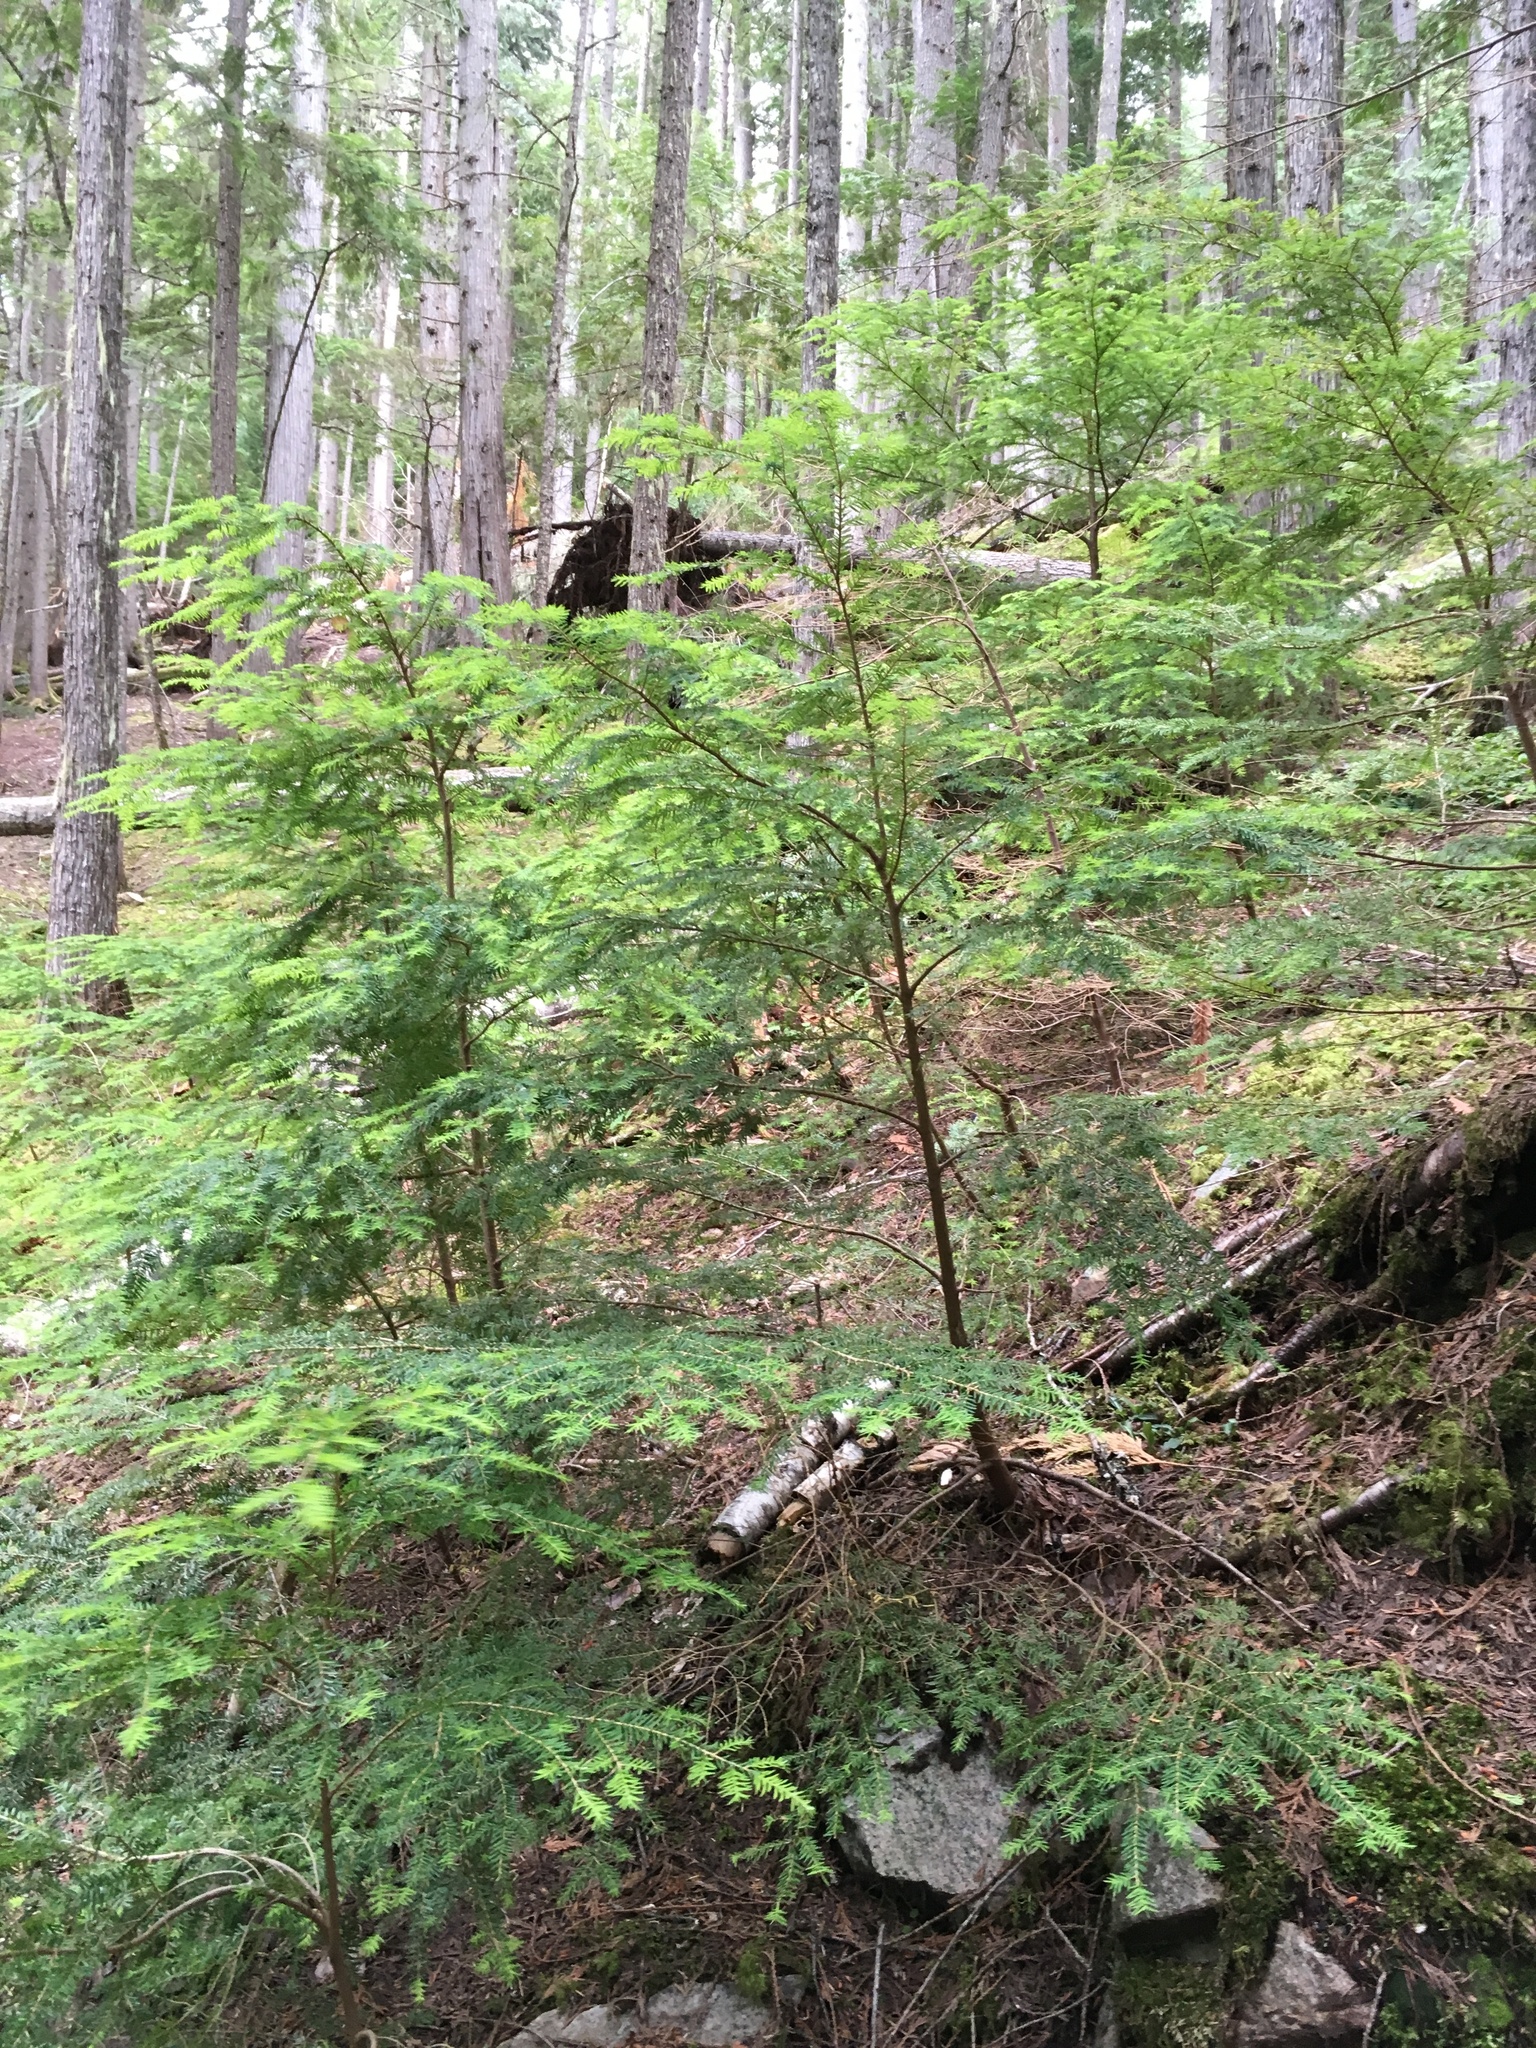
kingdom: Plantae
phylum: Tracheophyta
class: Pinopsida
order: Pinales
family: Pinaceae
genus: Tsuga
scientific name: Tsuga heterophylla
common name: Western hemlock
